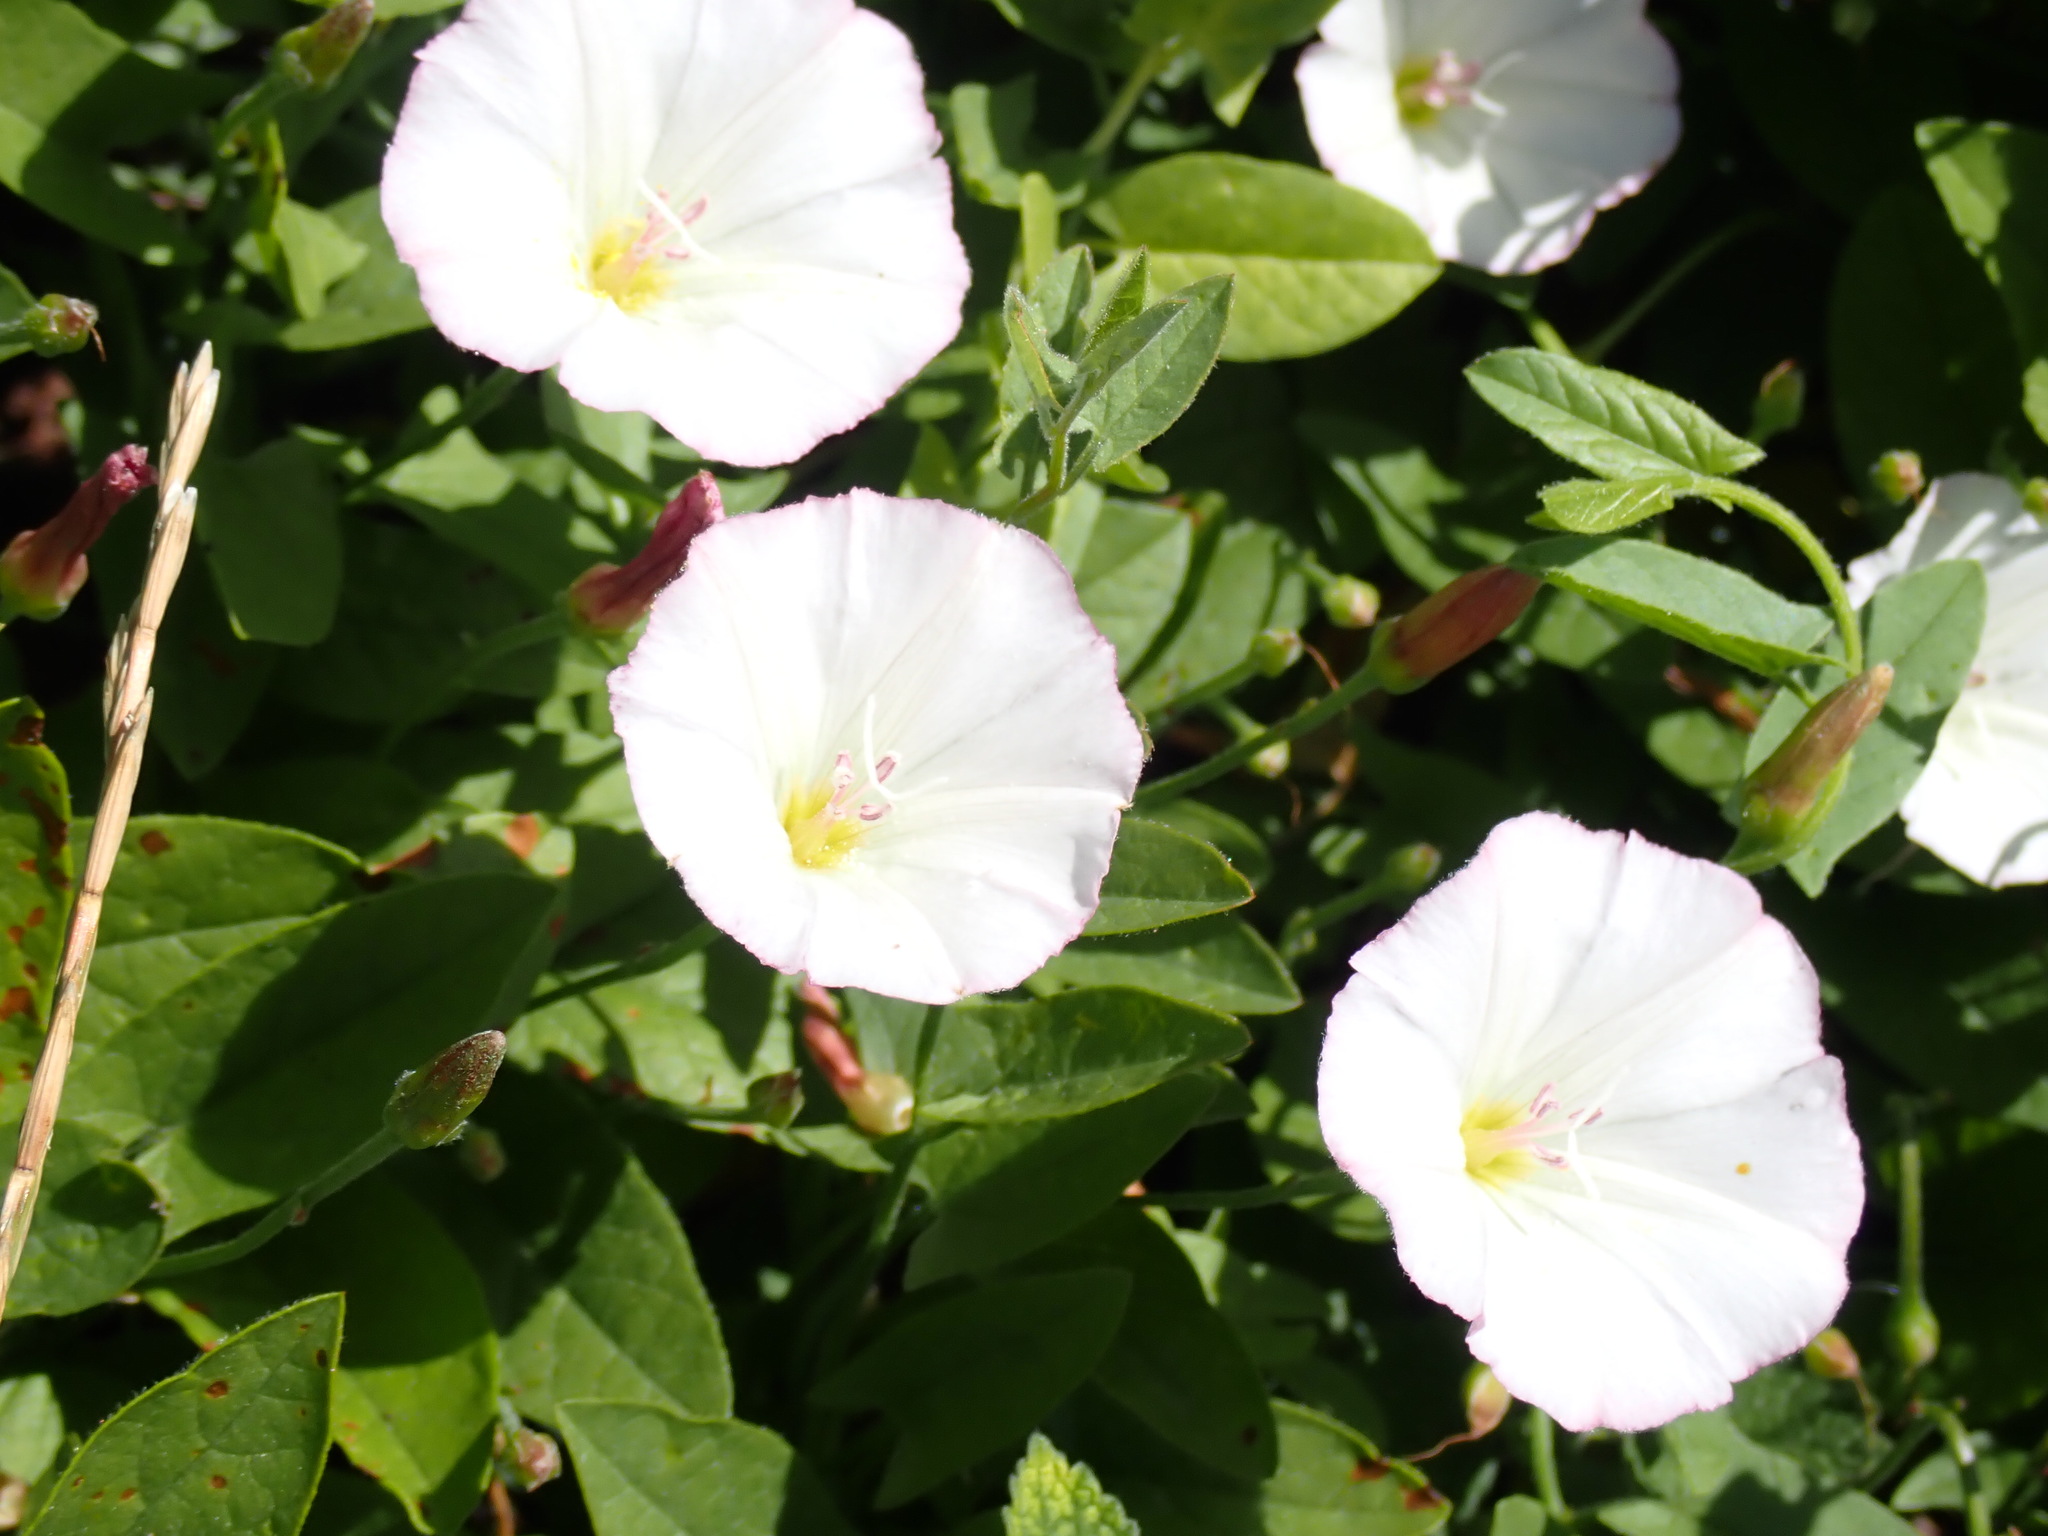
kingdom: Plantae
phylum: Tracheophyta
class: Magnoliopsida
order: Solanales
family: Convolvulaceae
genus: Convolvulus
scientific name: Convolvulus arvensis
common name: Field bindweed
